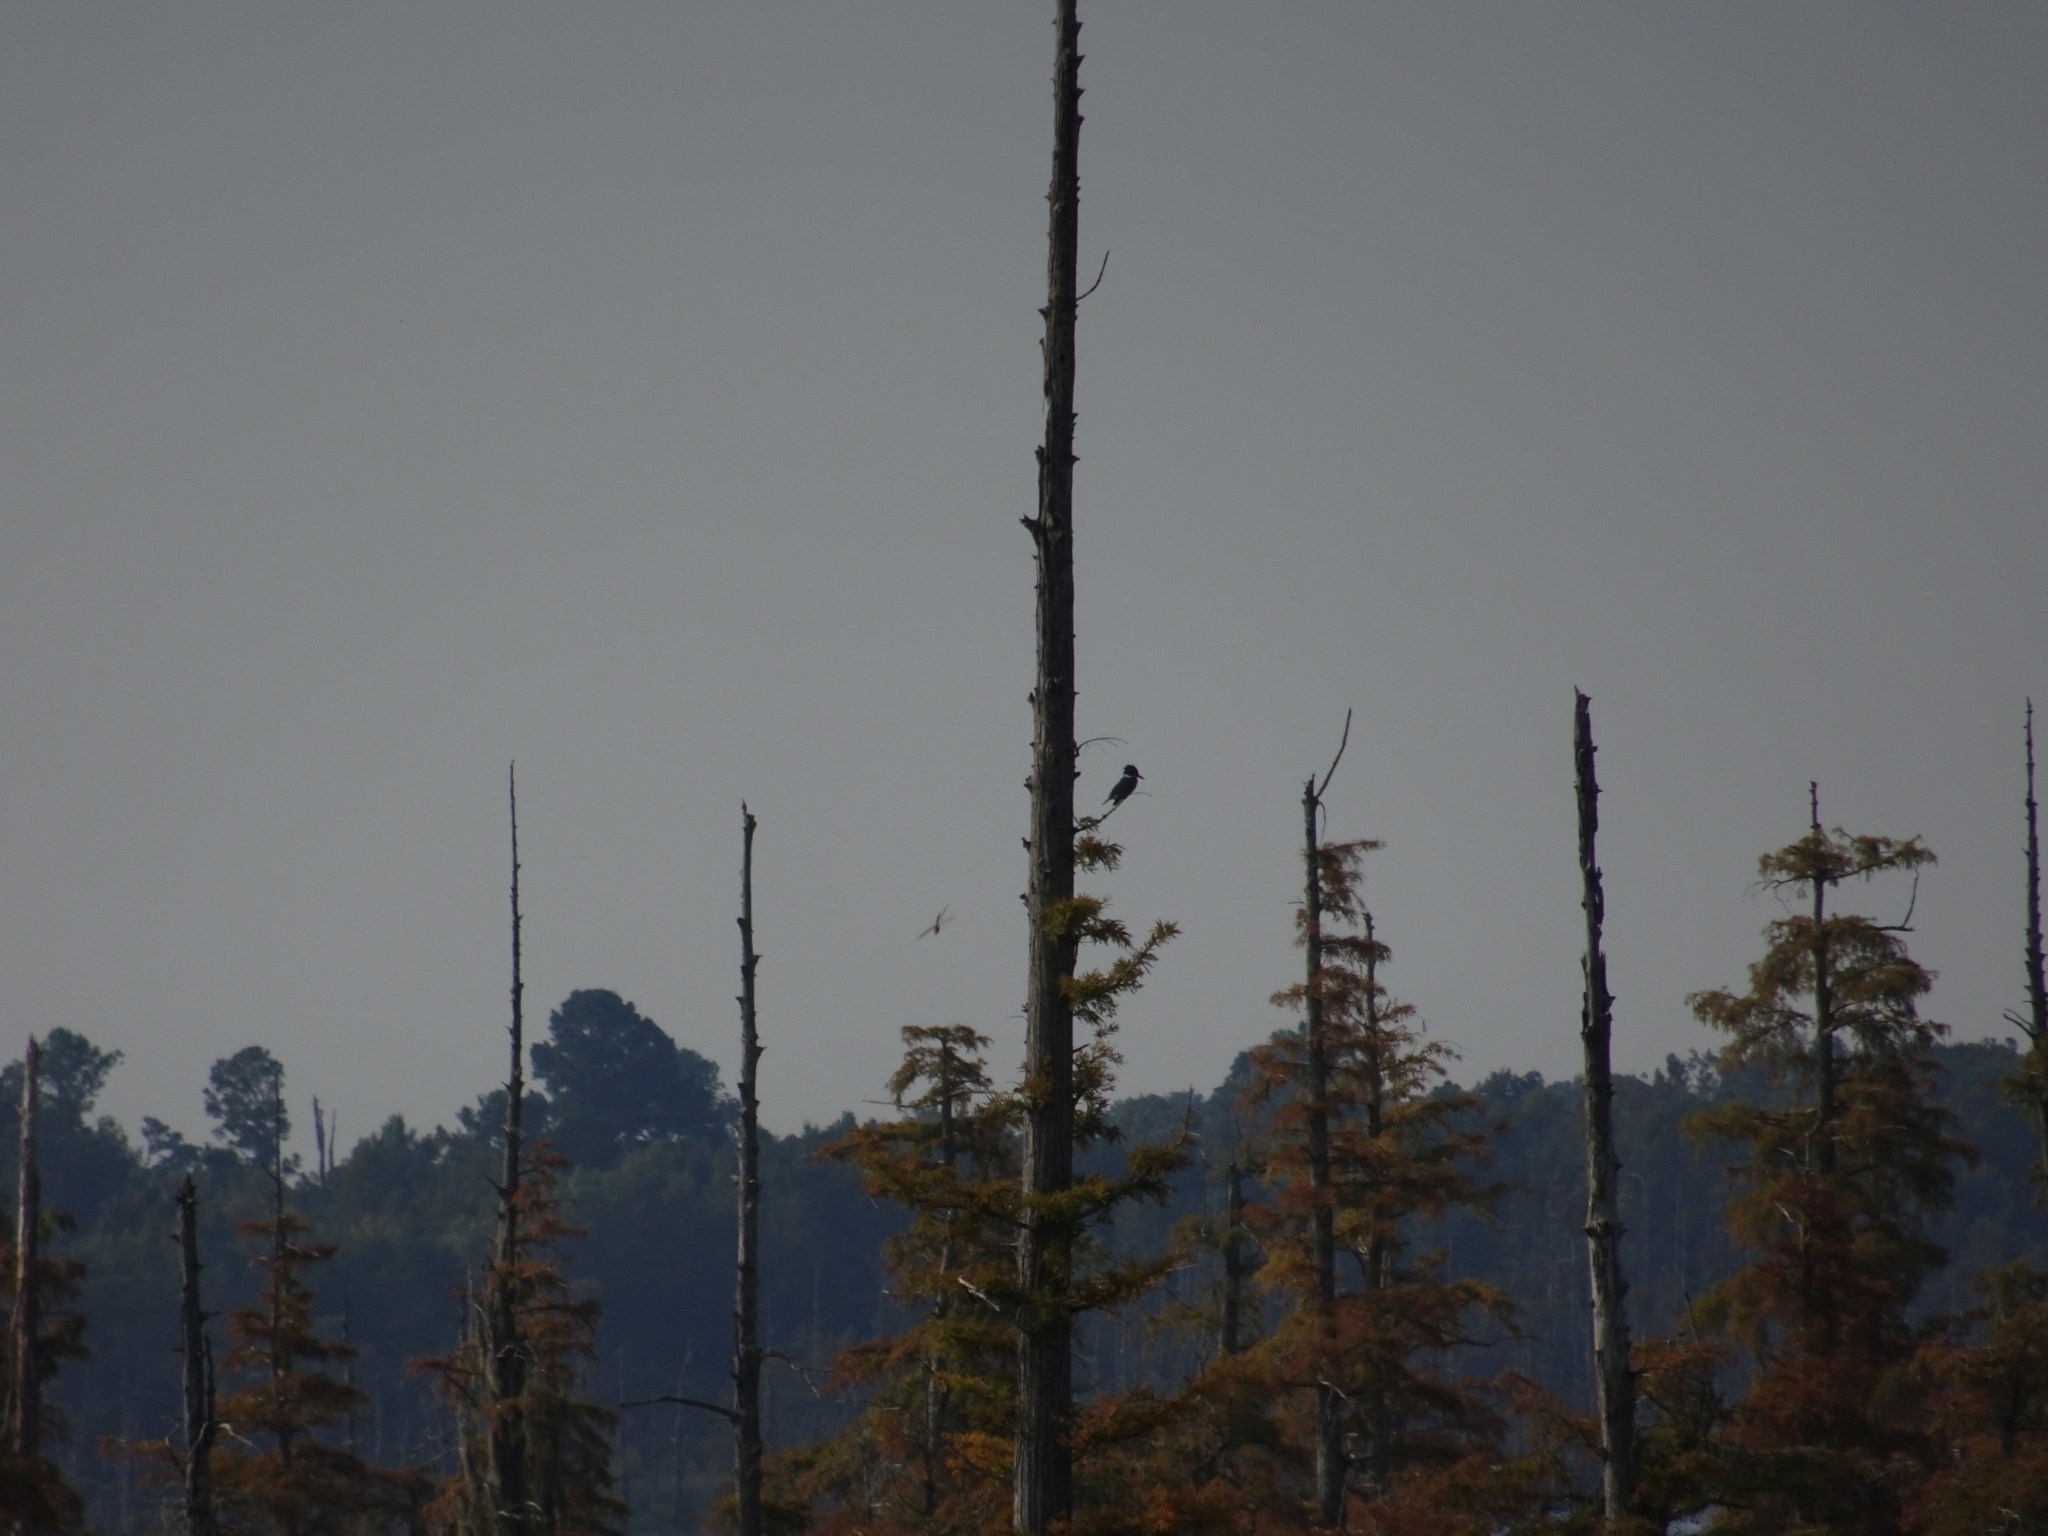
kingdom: Animalia
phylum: Chordata
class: Aves
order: Coraciiformes
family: Alcedinidae
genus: Megaceryle
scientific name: Megaceryle alcyon
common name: Belted kingfisher
